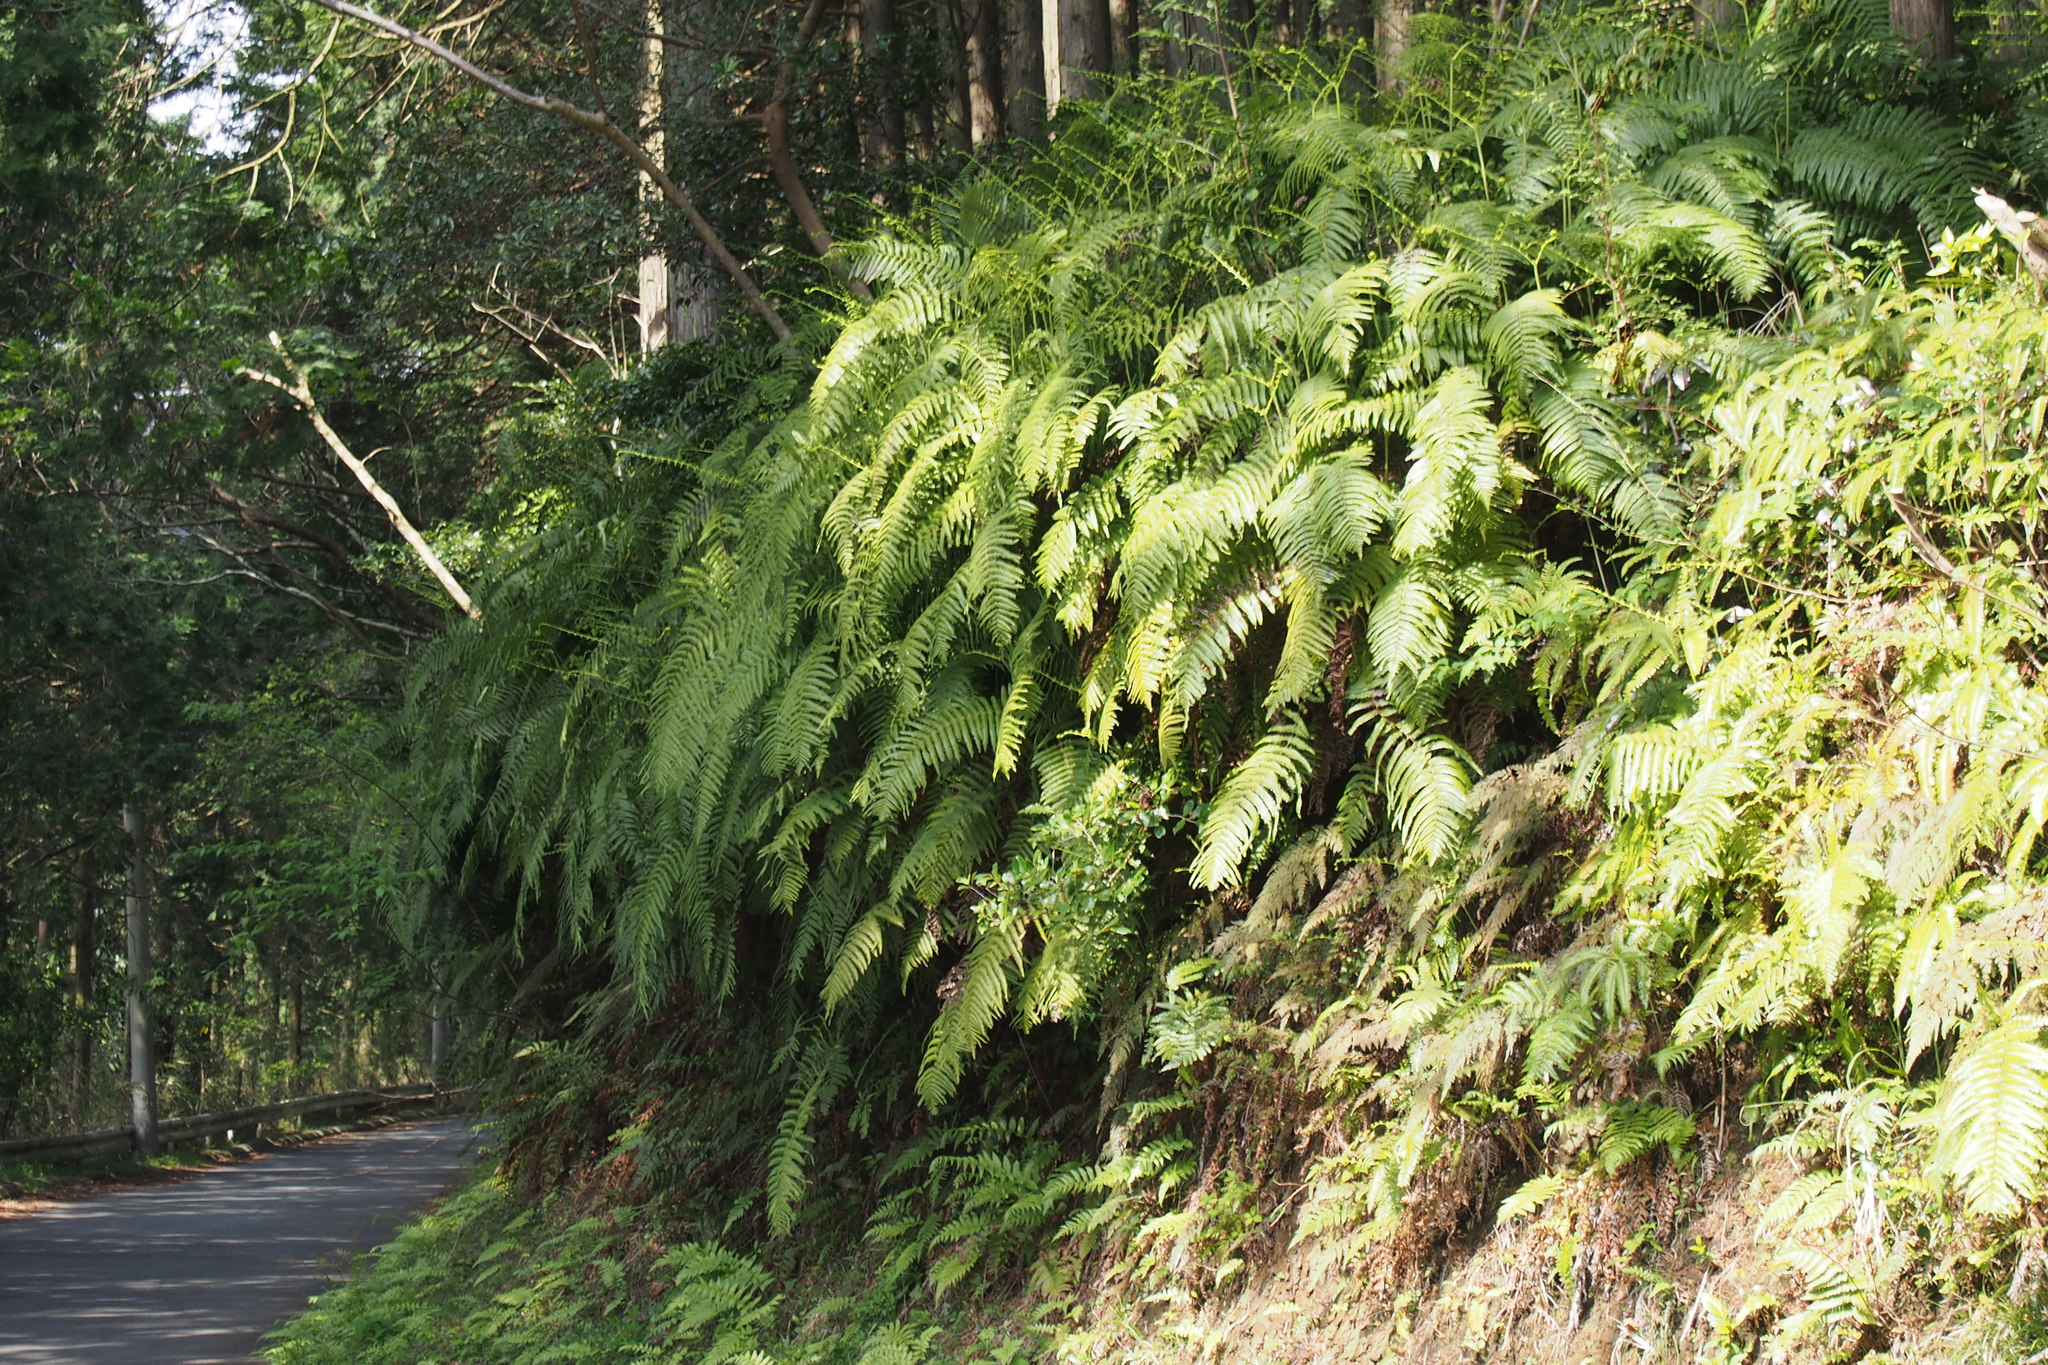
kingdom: Plantae
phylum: Tracheophyta
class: Polypodiopsida
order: Gleicheniales
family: Gleicheniaceae
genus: Diplopterygium
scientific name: Diplopterygium glaucum
